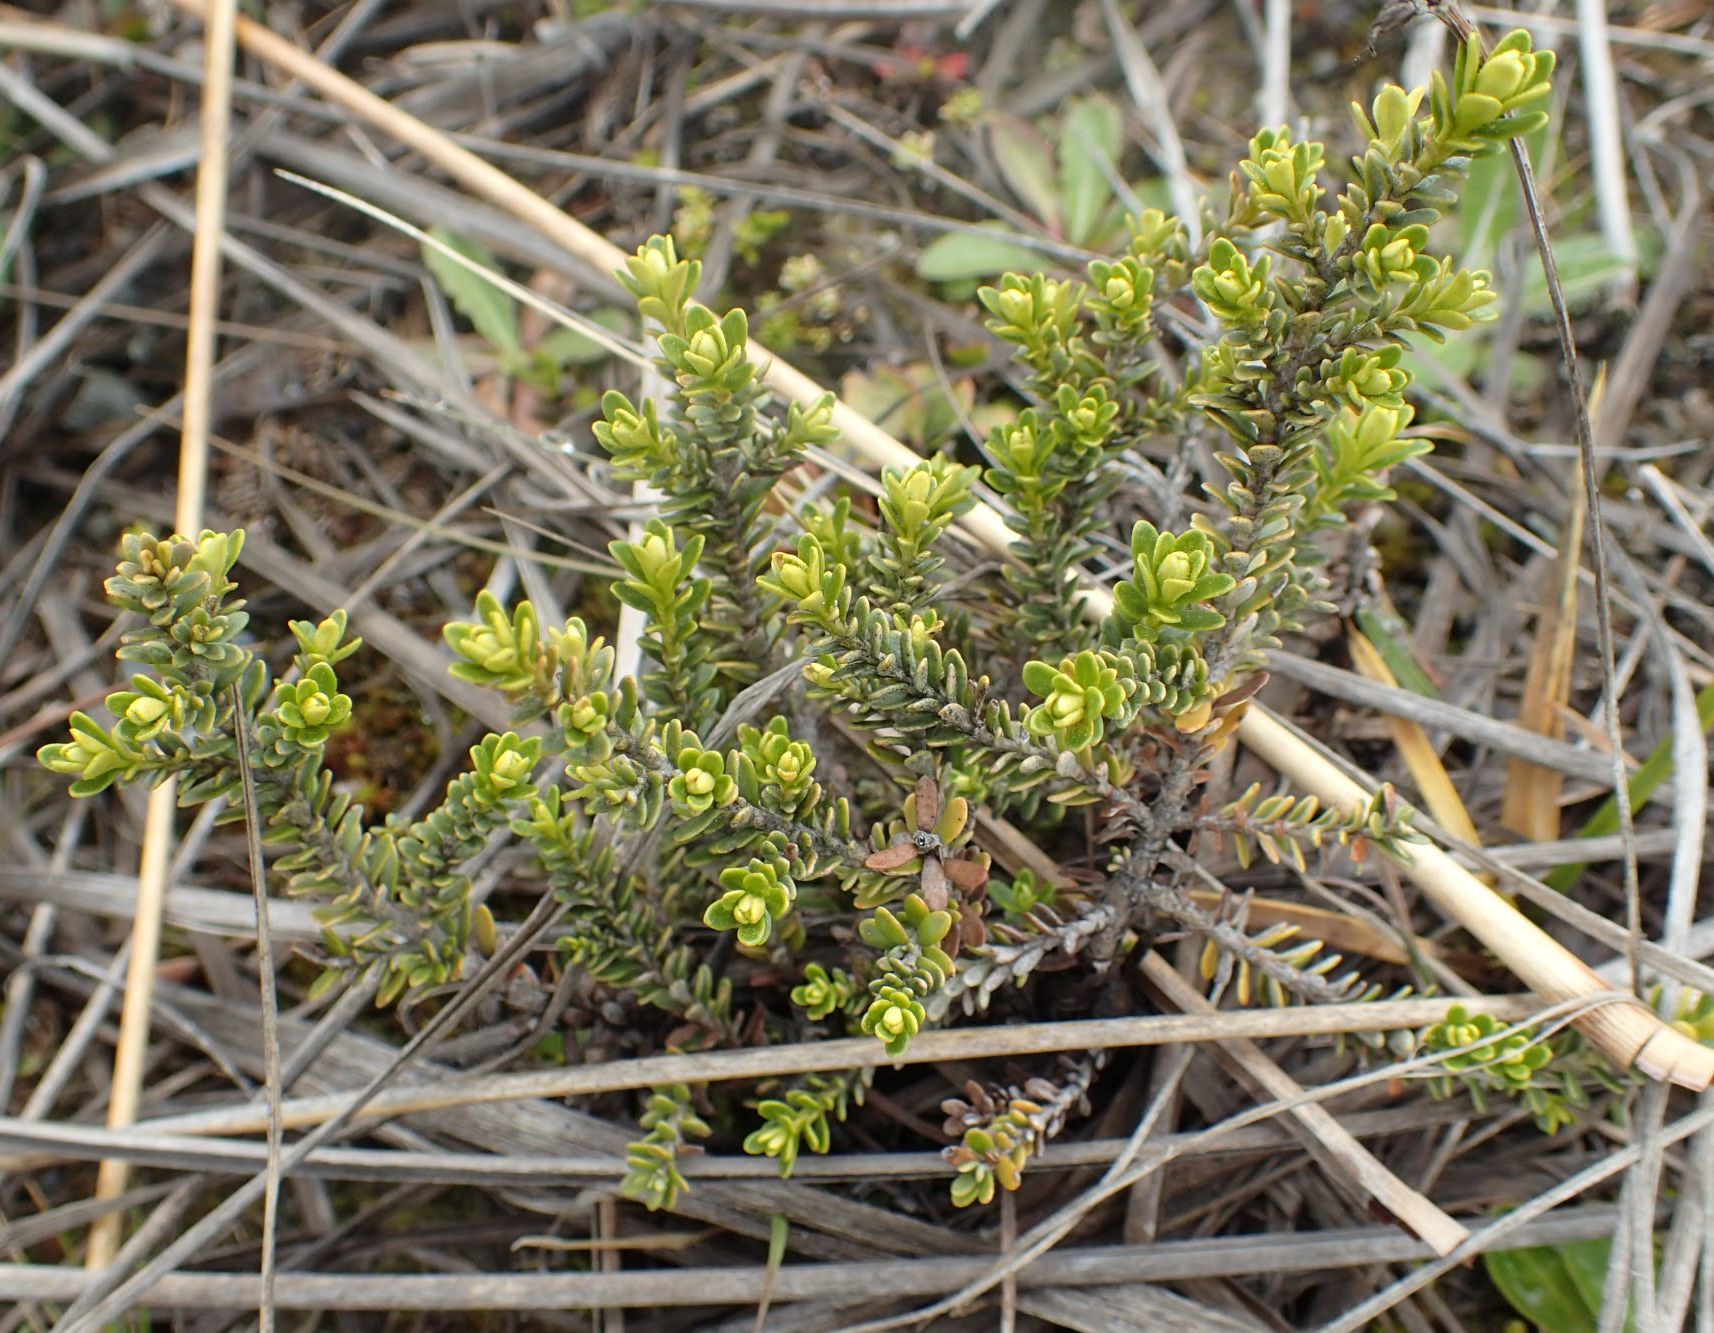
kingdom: Plantae
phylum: Tracheophyta
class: Magnoliopsida
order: Asterales
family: Asteraceae
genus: Ozothamnus
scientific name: Ozothamnus leptophyllus
